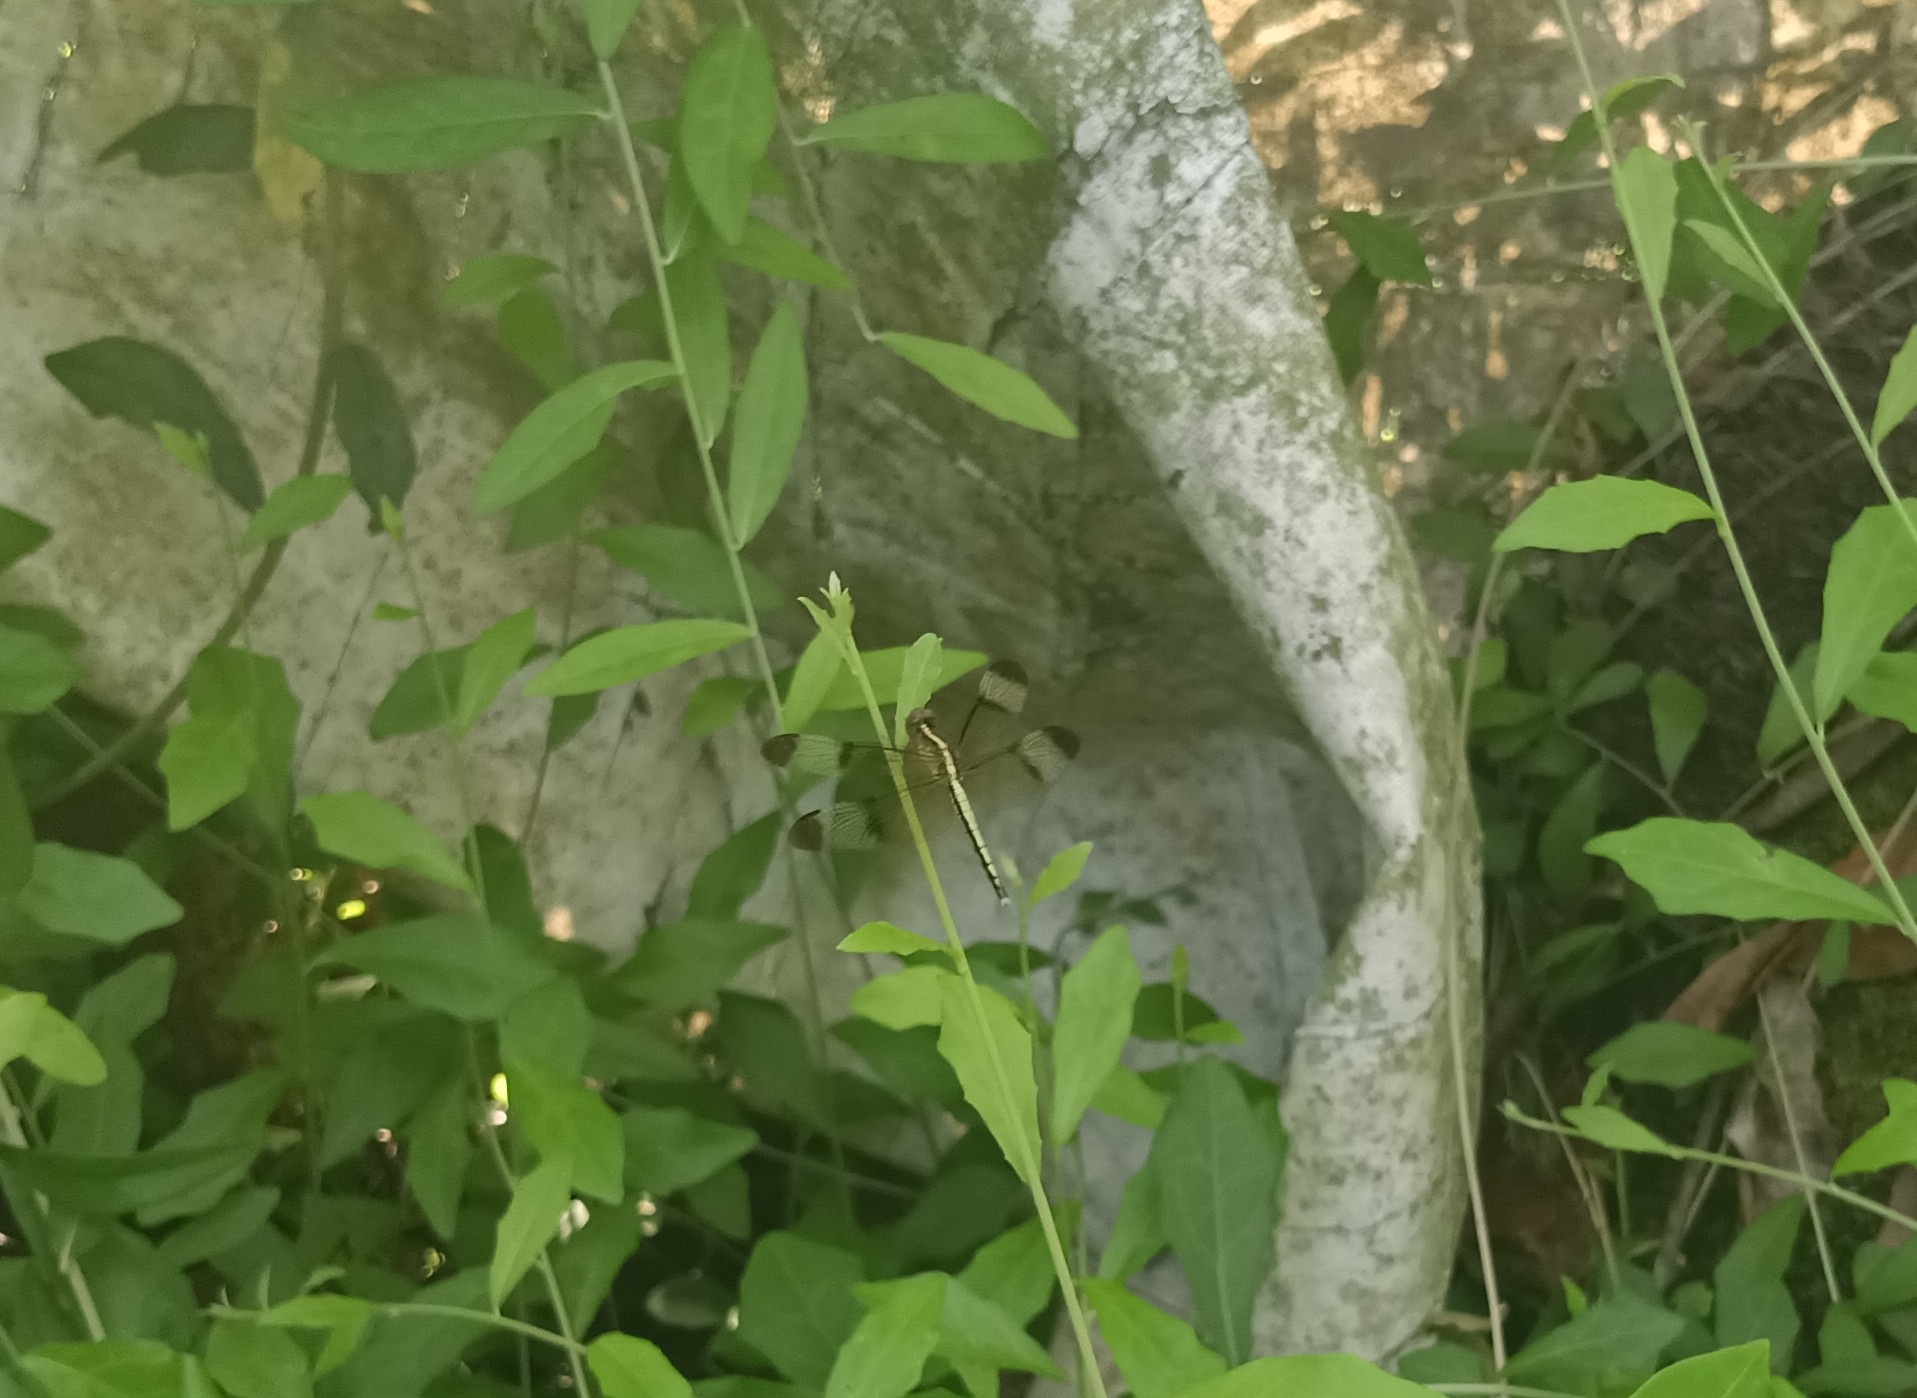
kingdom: Animalia
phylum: Arthropoda
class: Insecta
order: Odonata
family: Libellulidae
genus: Neurothemis
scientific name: Neurothemis tullia
